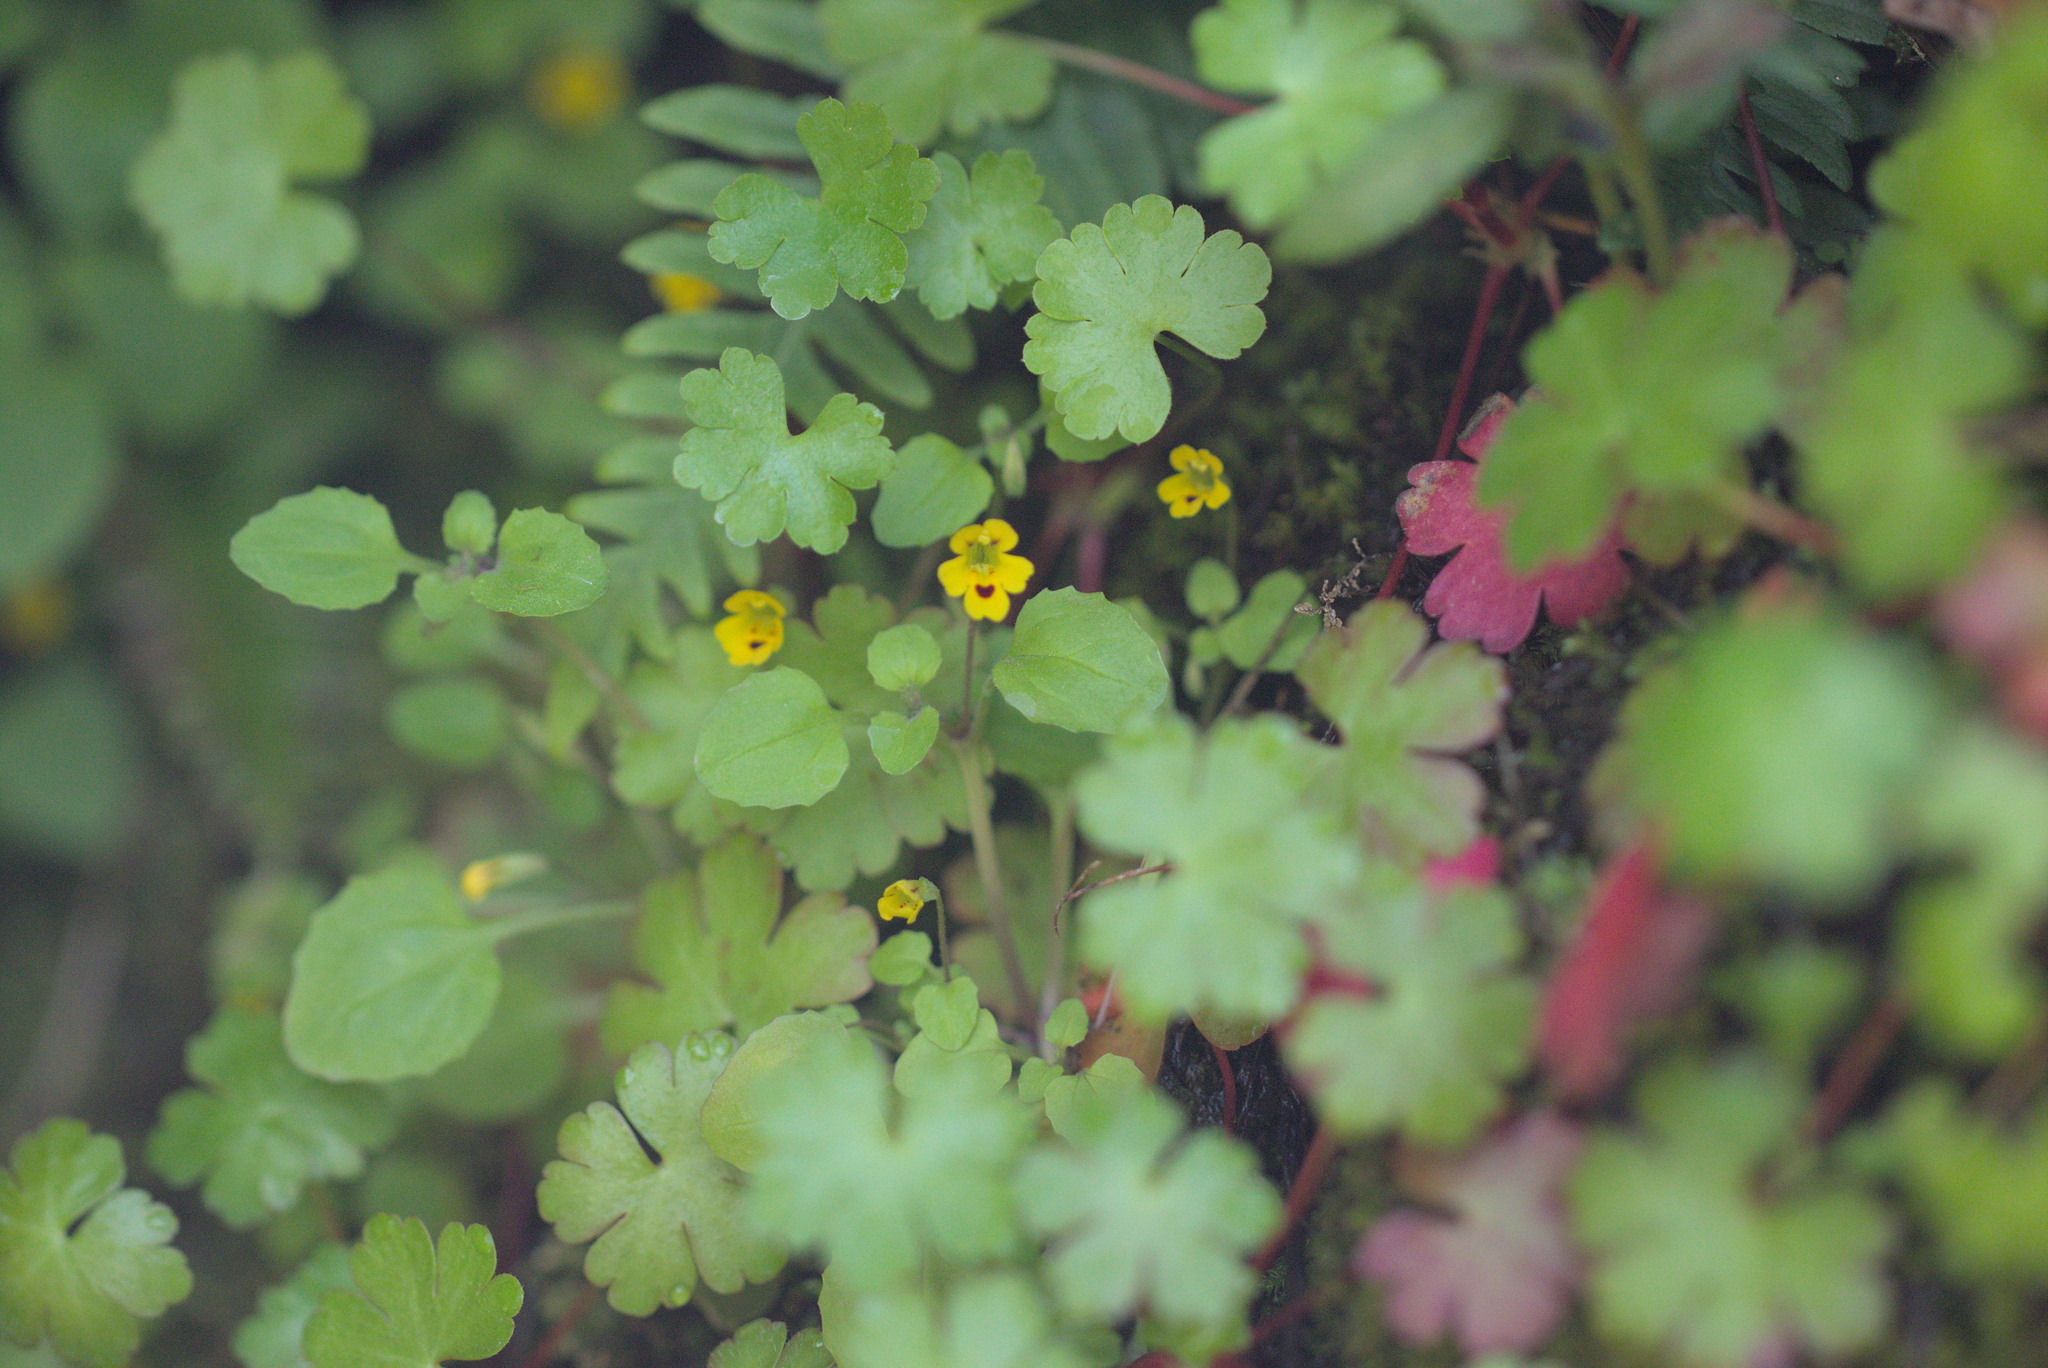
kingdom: Plantae
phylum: Tracheophyta
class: Magnoliopsida
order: Lamiales
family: Phrymaceae
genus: Erythranthe
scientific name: Erythranthe alsinoides
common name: Chickweed monkeyflower
